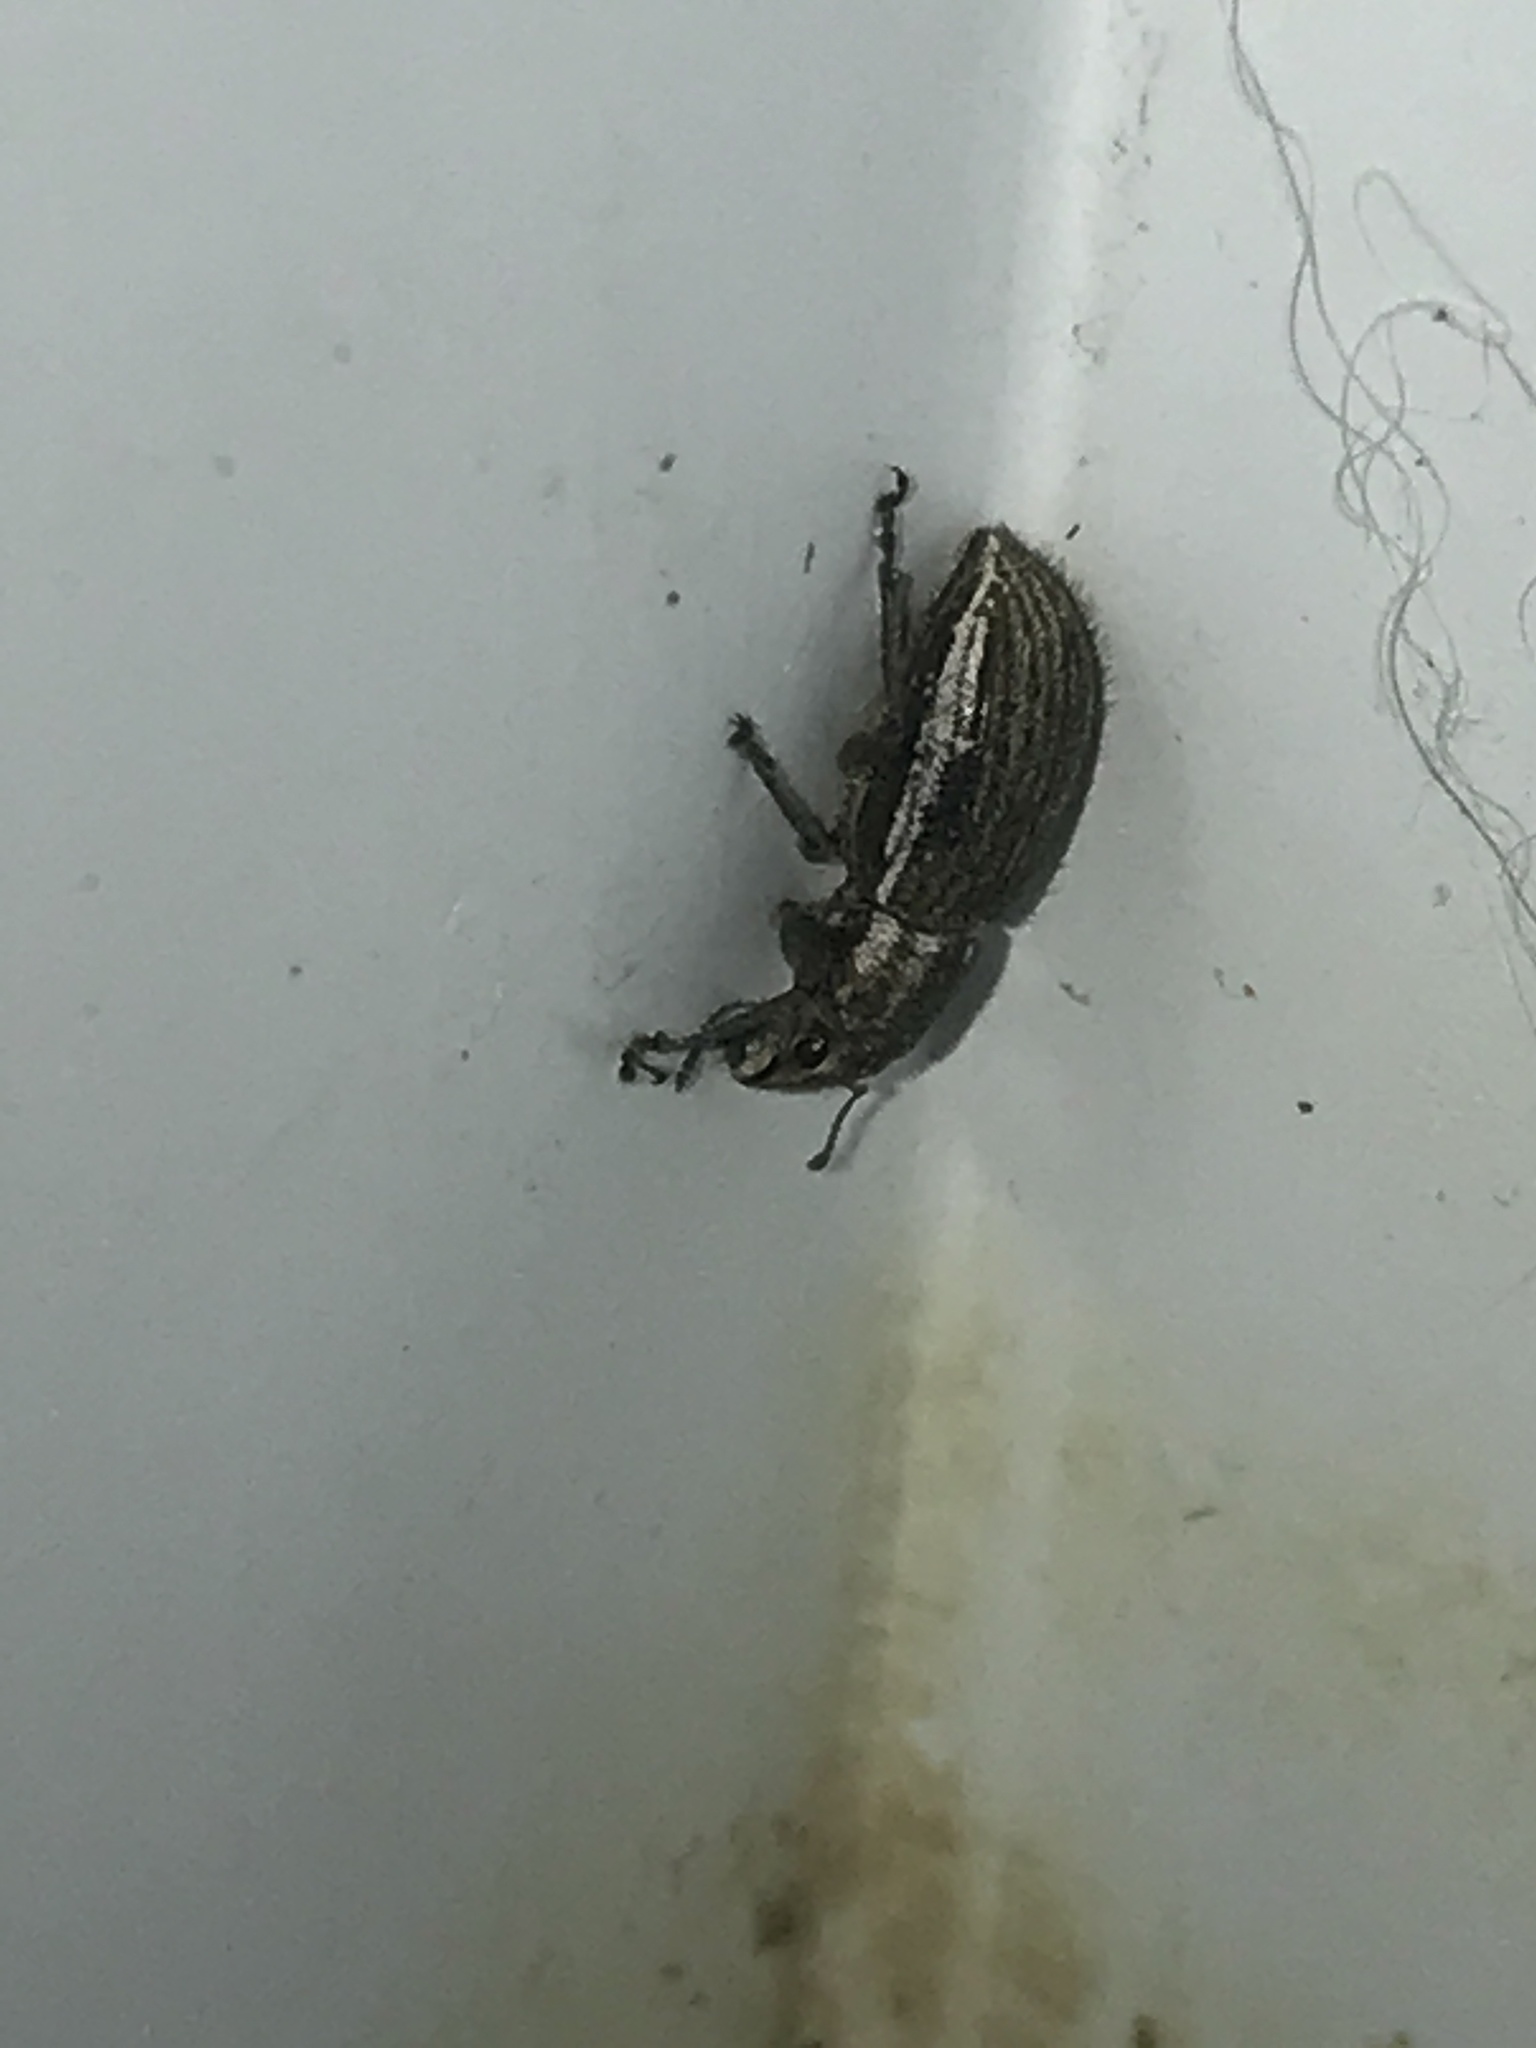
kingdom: Animalia
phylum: Arthropoda
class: Insecta
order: Coleoptera
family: Curculionidae
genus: Naupactus
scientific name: Naupactus leucoloma
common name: Whitefringed beetle
